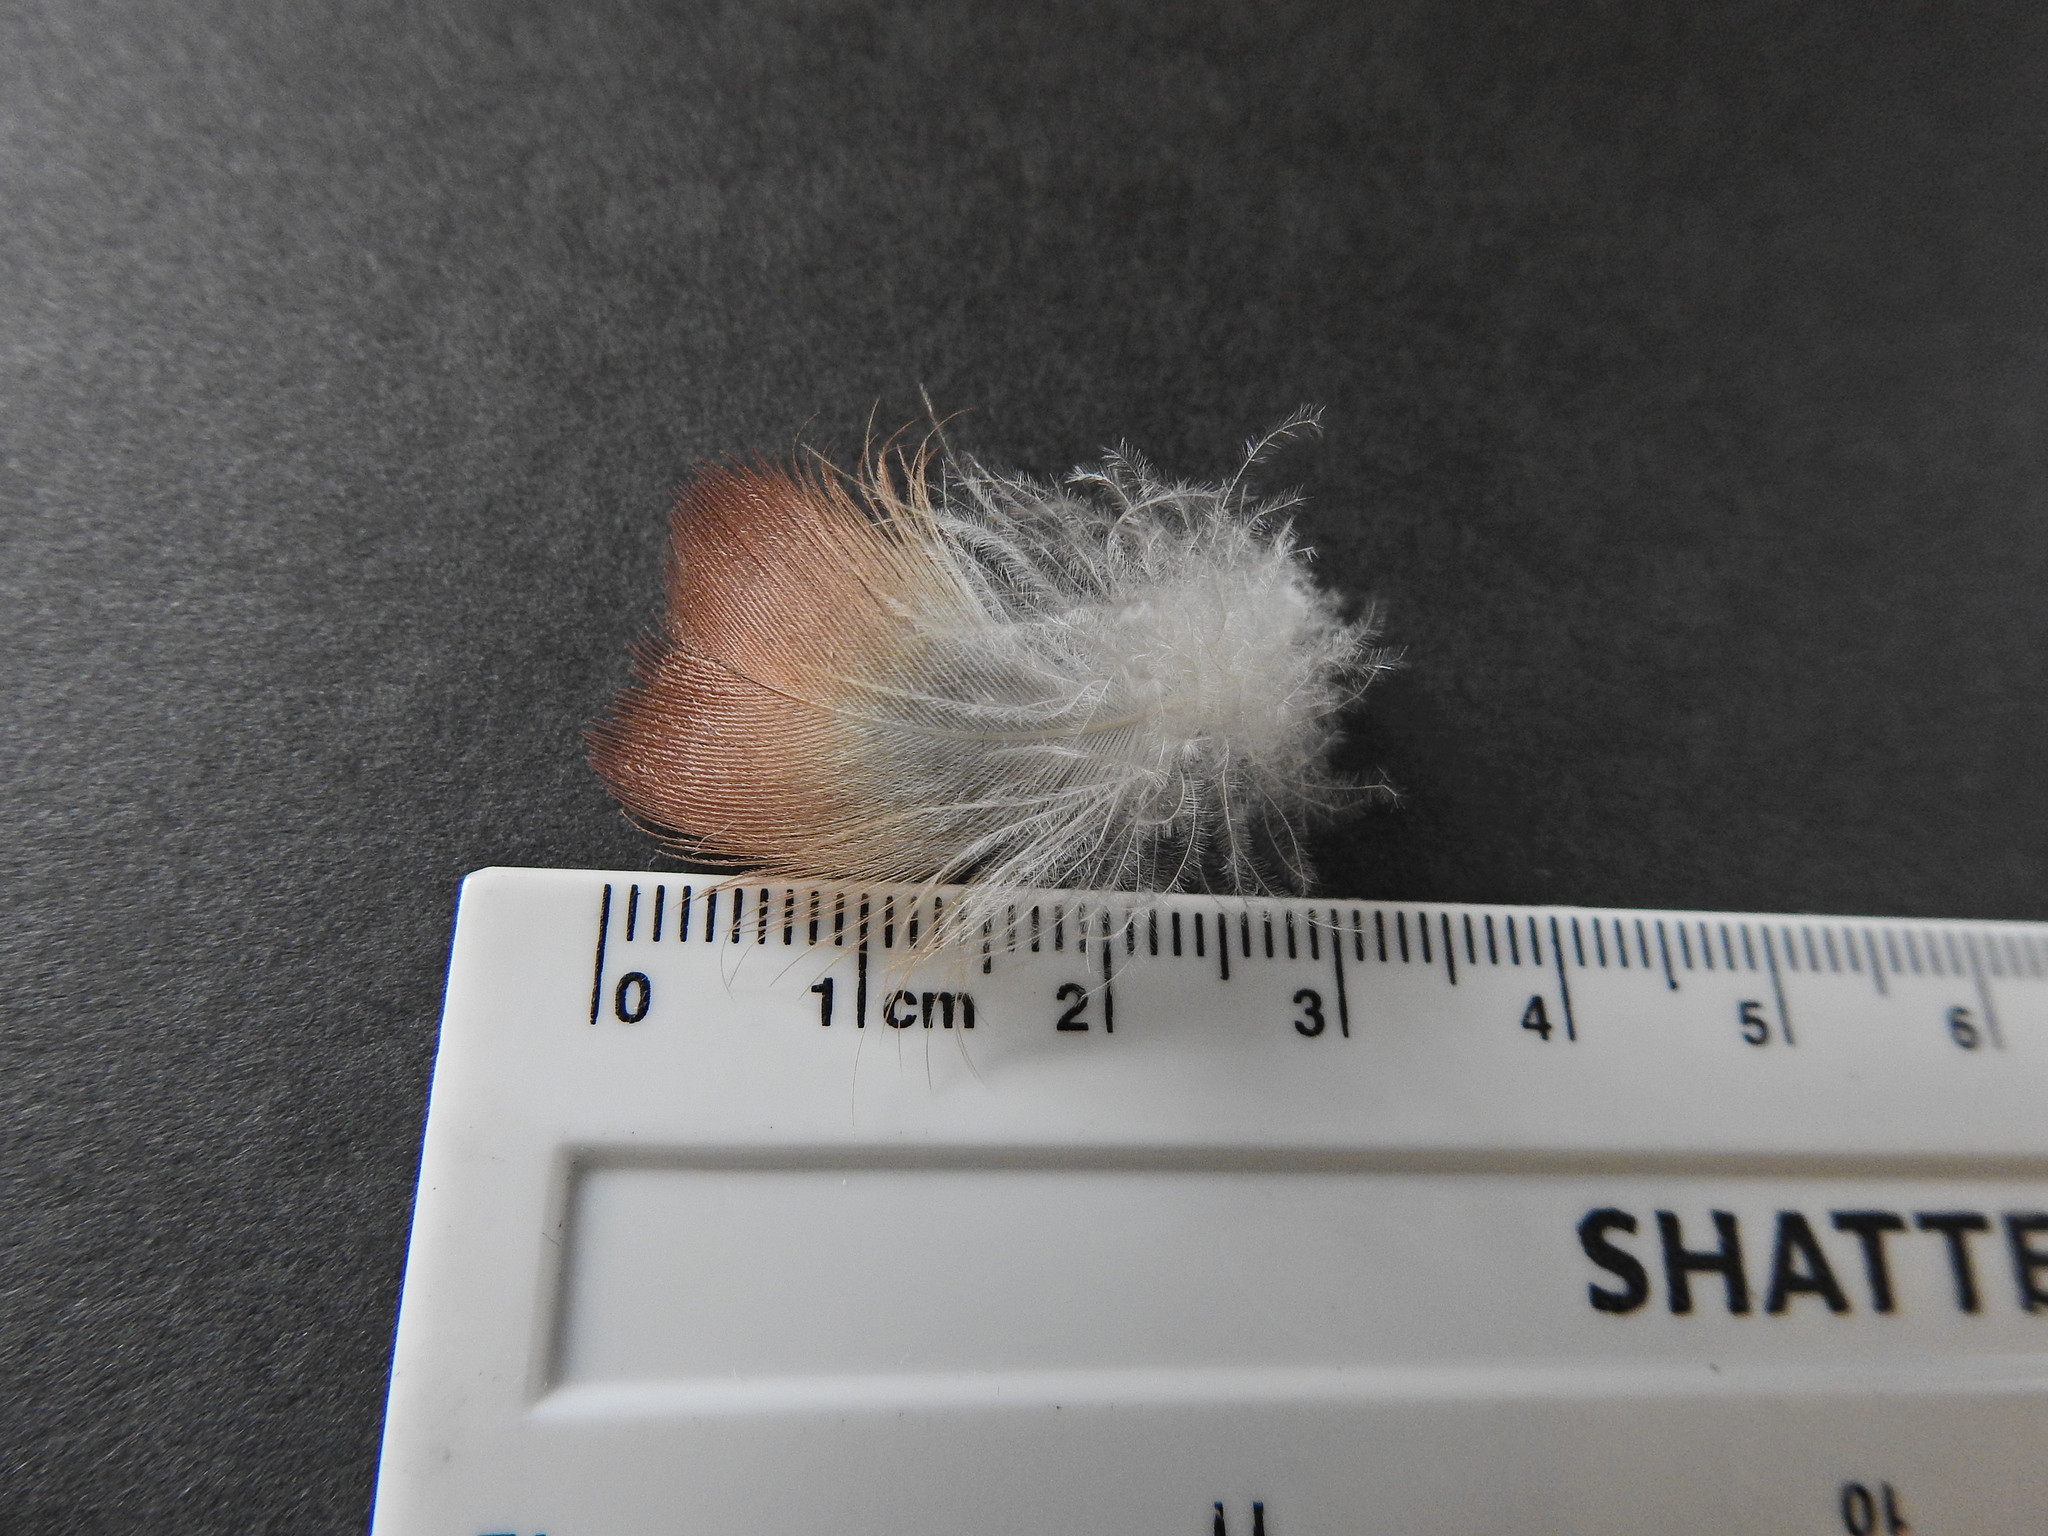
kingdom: Animalia
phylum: Chordata
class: Aves
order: Anseriformes
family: Anatidae
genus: Anas
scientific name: Anas platyrhynchos
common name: Mallard
